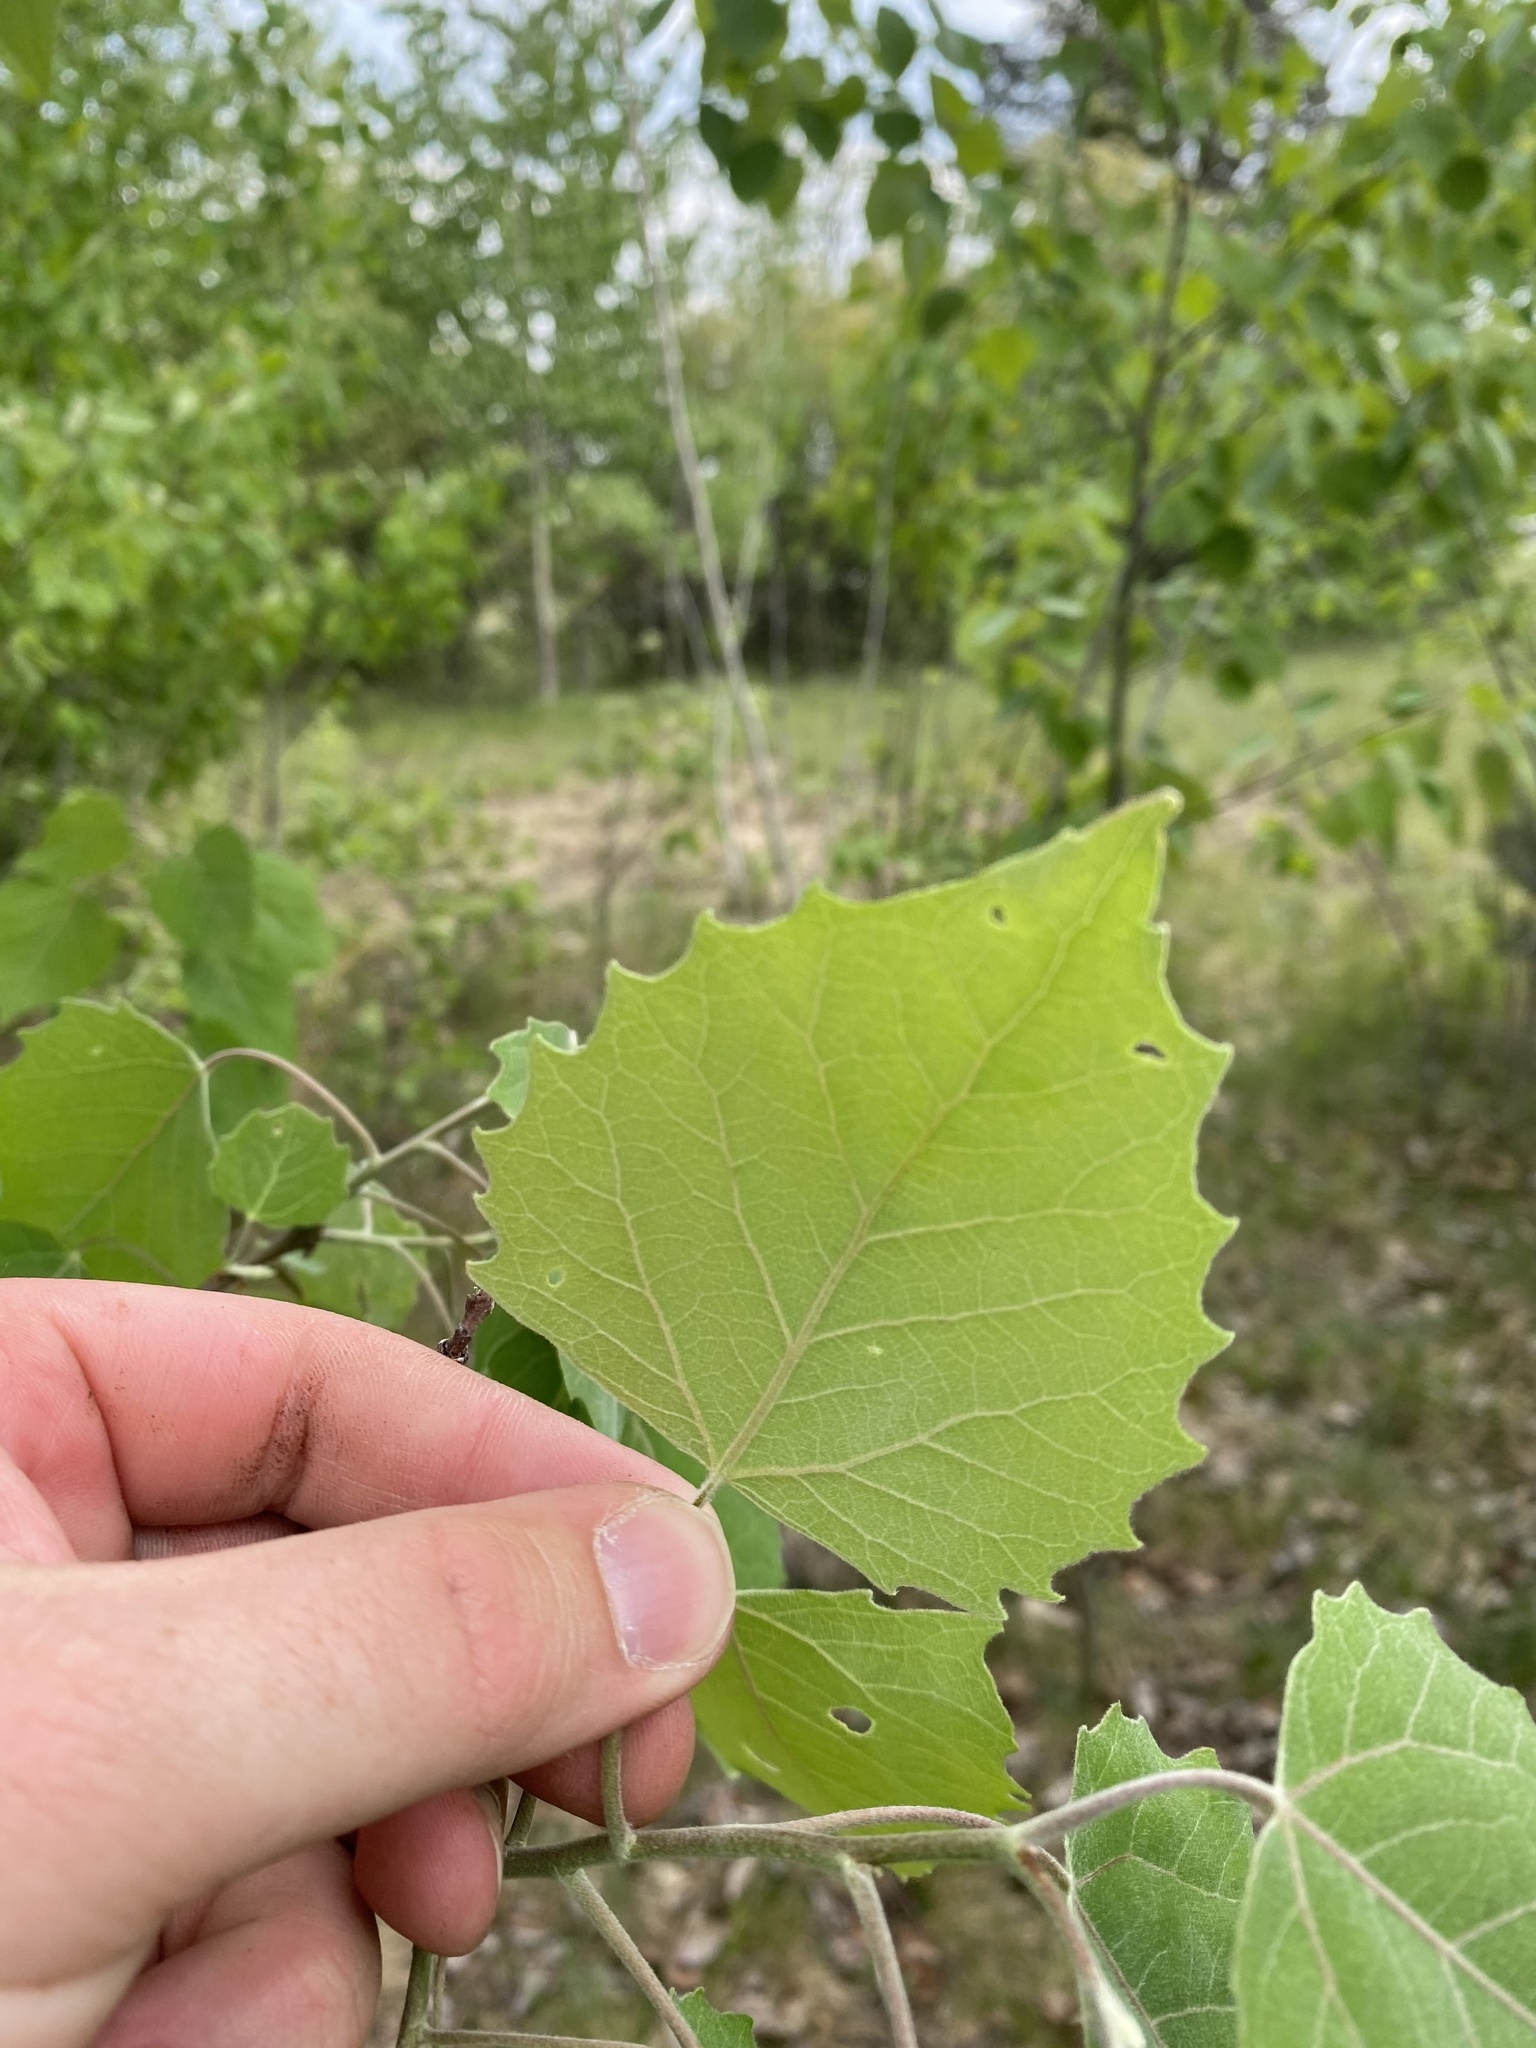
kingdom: Plantae
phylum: Tracheophyta
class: Magnoliopsida
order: Malpighiales
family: Salicaceae
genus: Populus
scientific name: Populus grandidentata
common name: Bigtooth aspen
